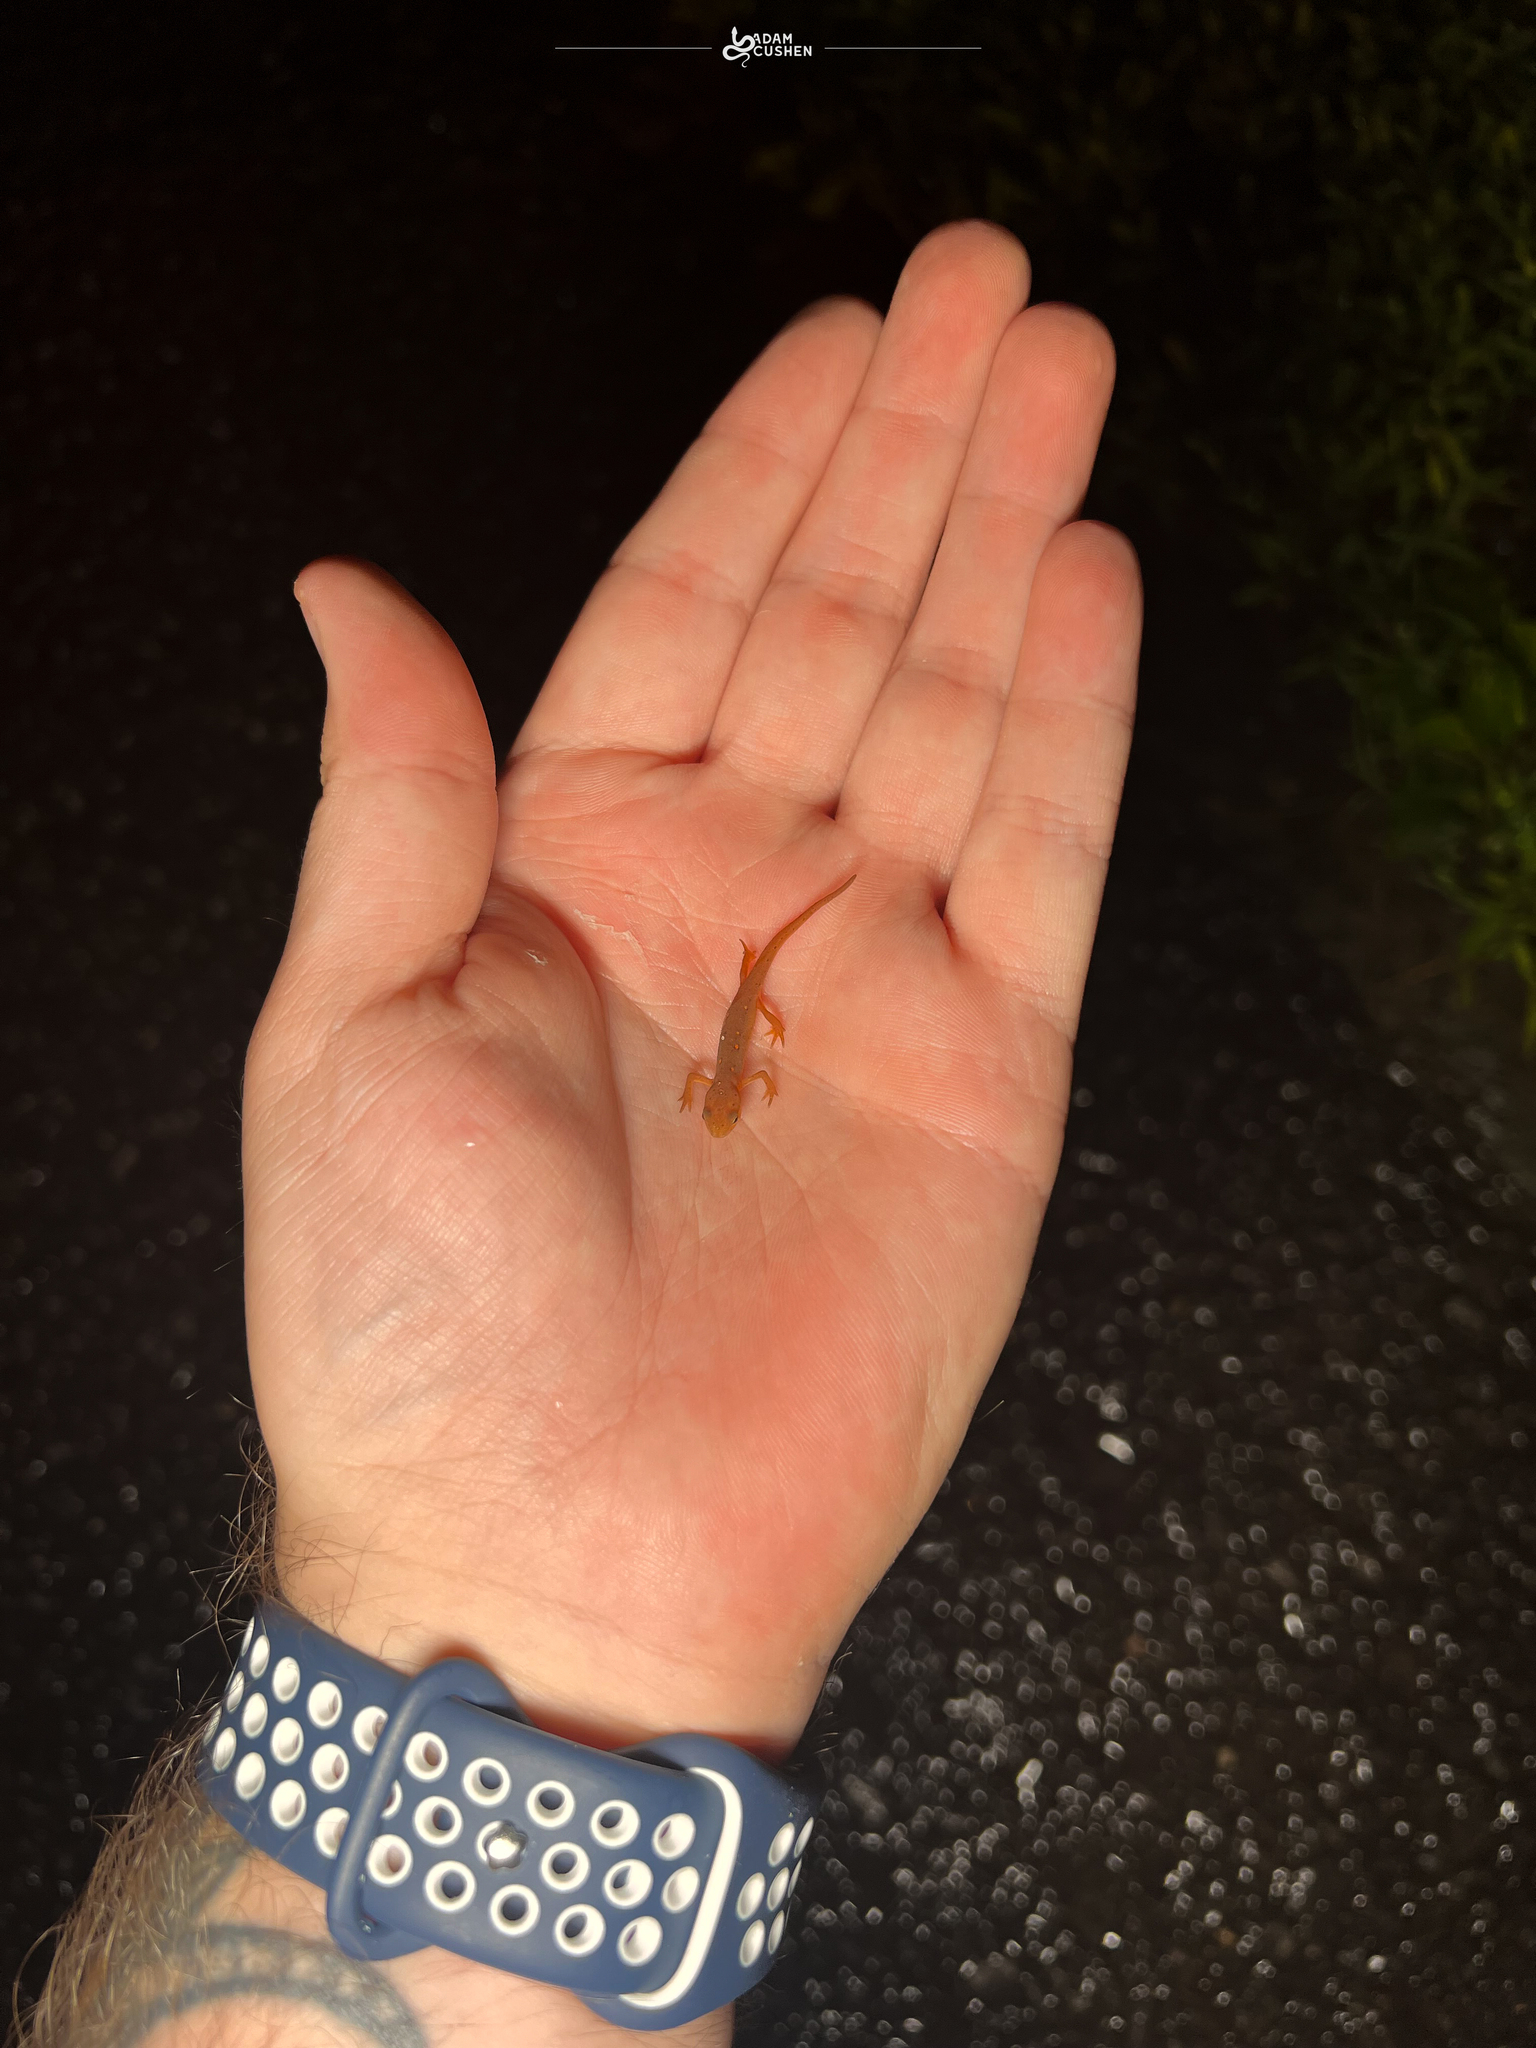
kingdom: Animalia
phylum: Chordata
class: Amphibia
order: Caudata
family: Salamandridae
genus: Notophthalmus
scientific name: Notophthalmus viridescens
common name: Eastern newt
